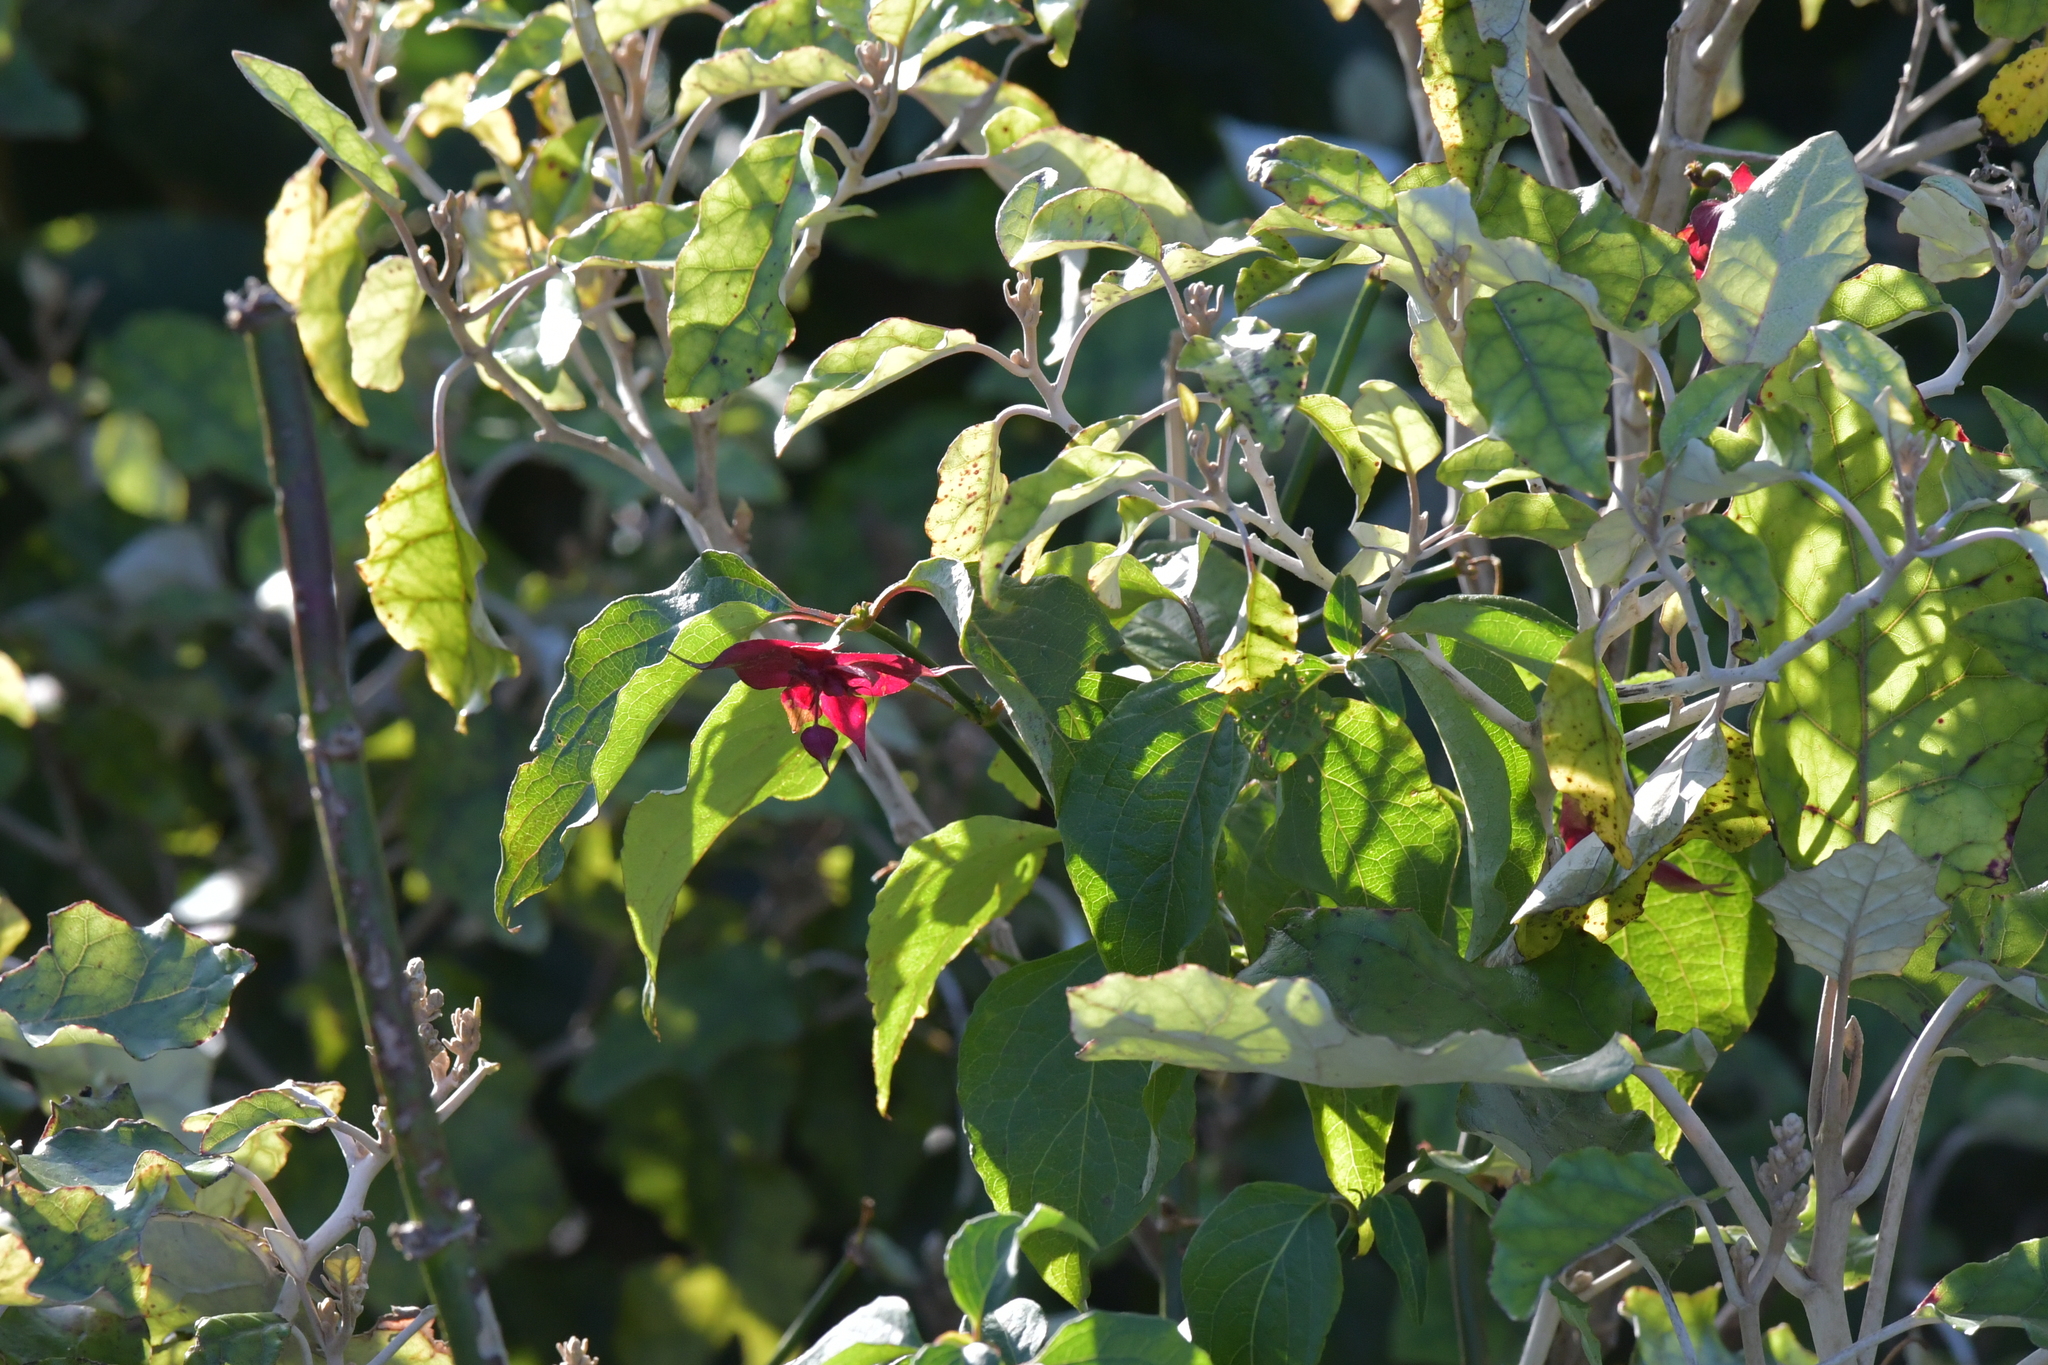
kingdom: Plantae
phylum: Tracheophyta
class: Magnoliopsida
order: Dipsacales
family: Caprifoliaceae
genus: Leycesteria
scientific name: Leycesteria formosa
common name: Himalayan honeysuckle
